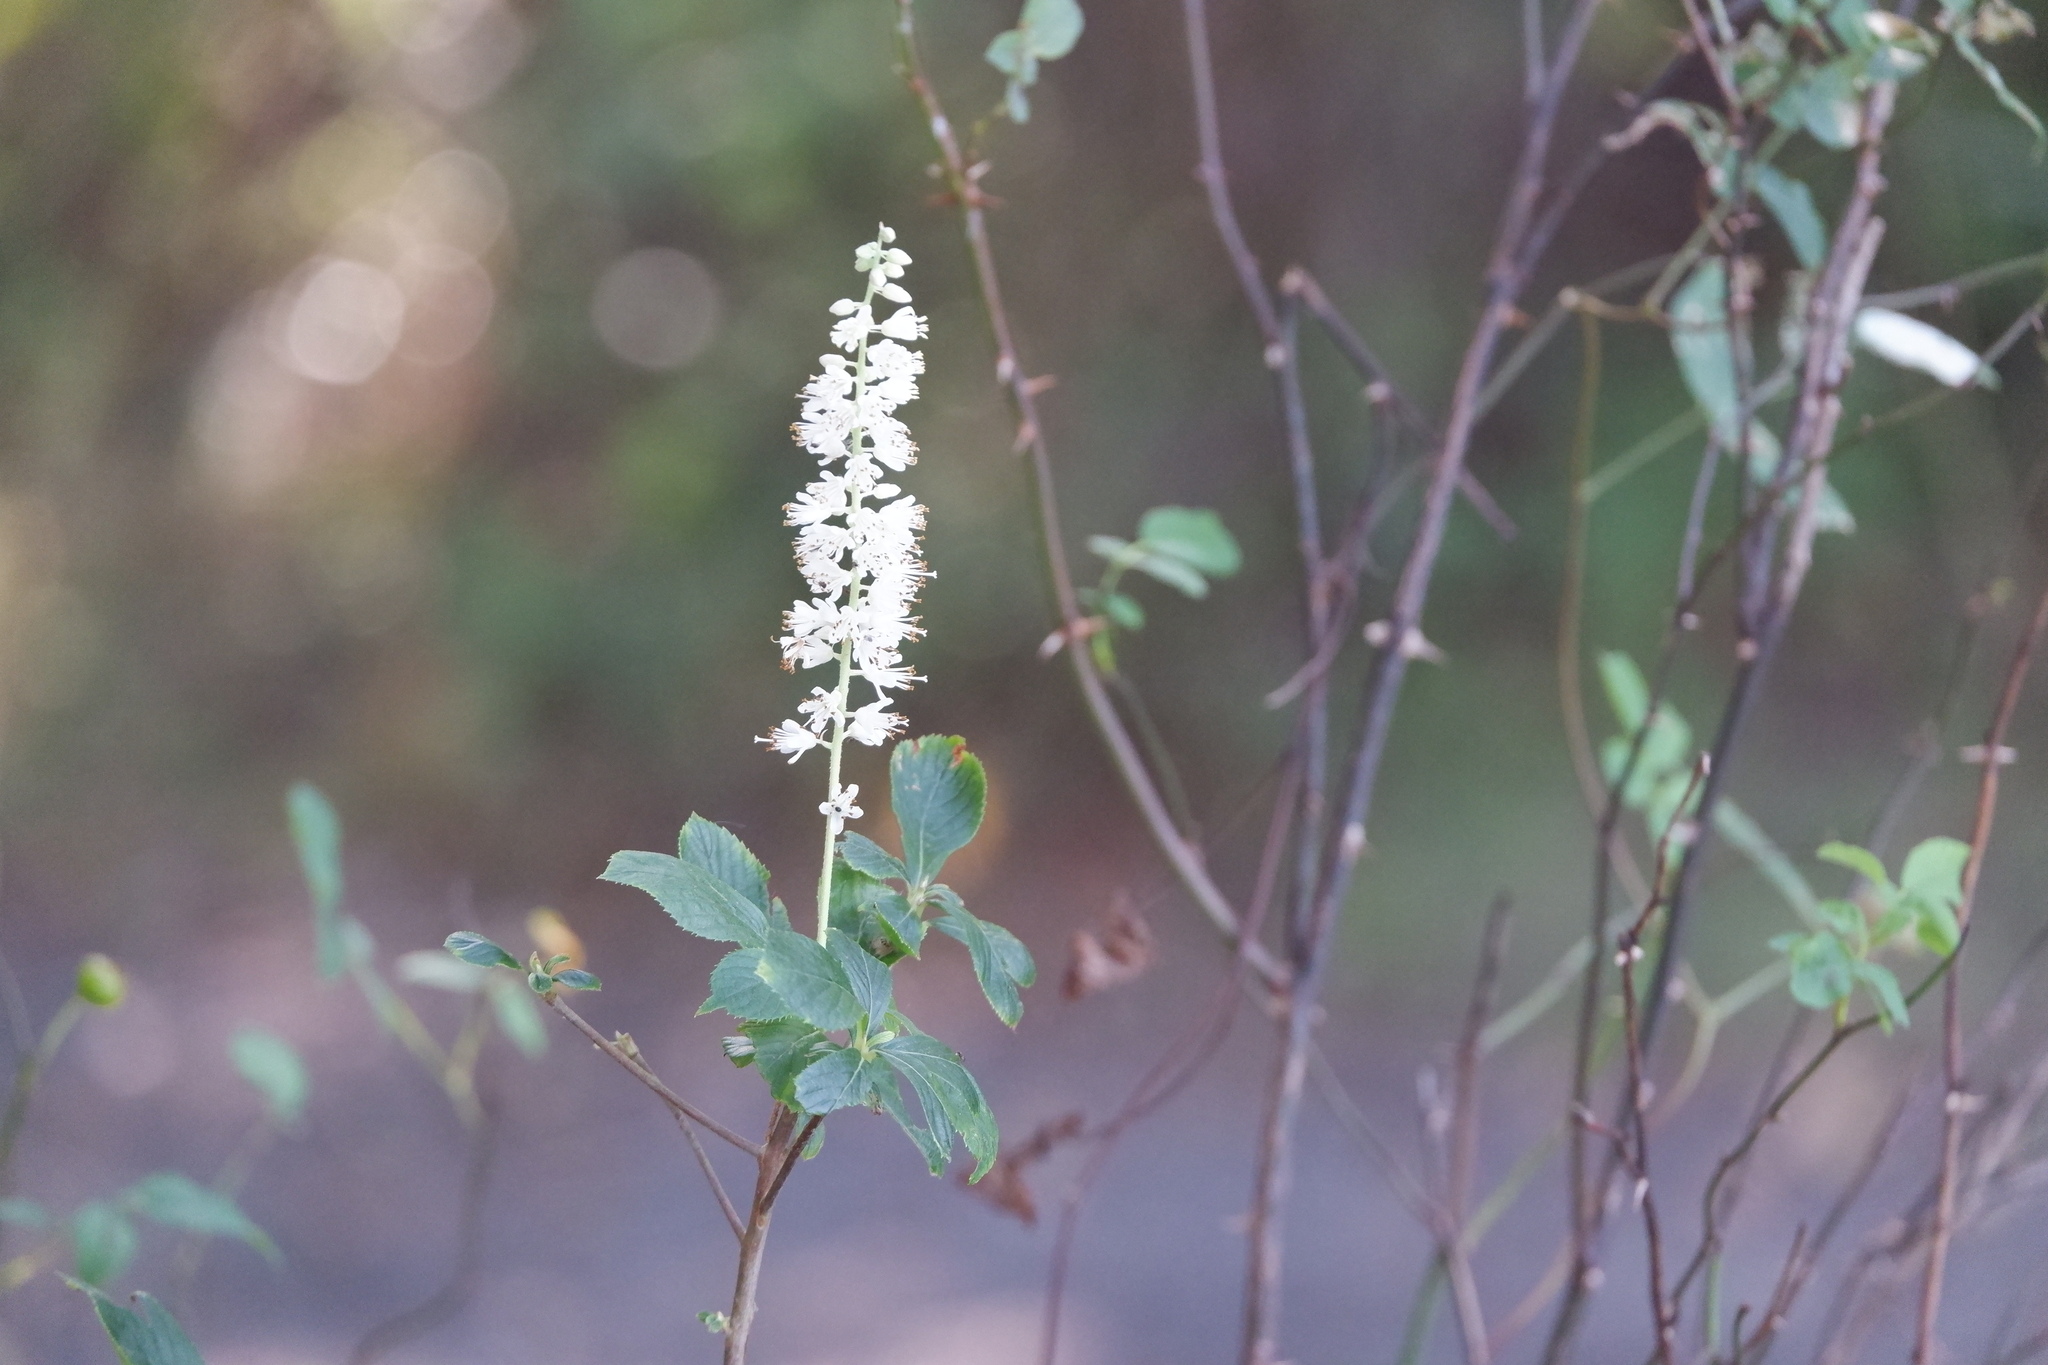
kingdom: Plantae
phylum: Tracheophyta
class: Magnoliopsida
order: Ericales
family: Clethraceae
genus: Clethra
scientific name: Clethra alnifolia
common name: Sweet pepperbush
